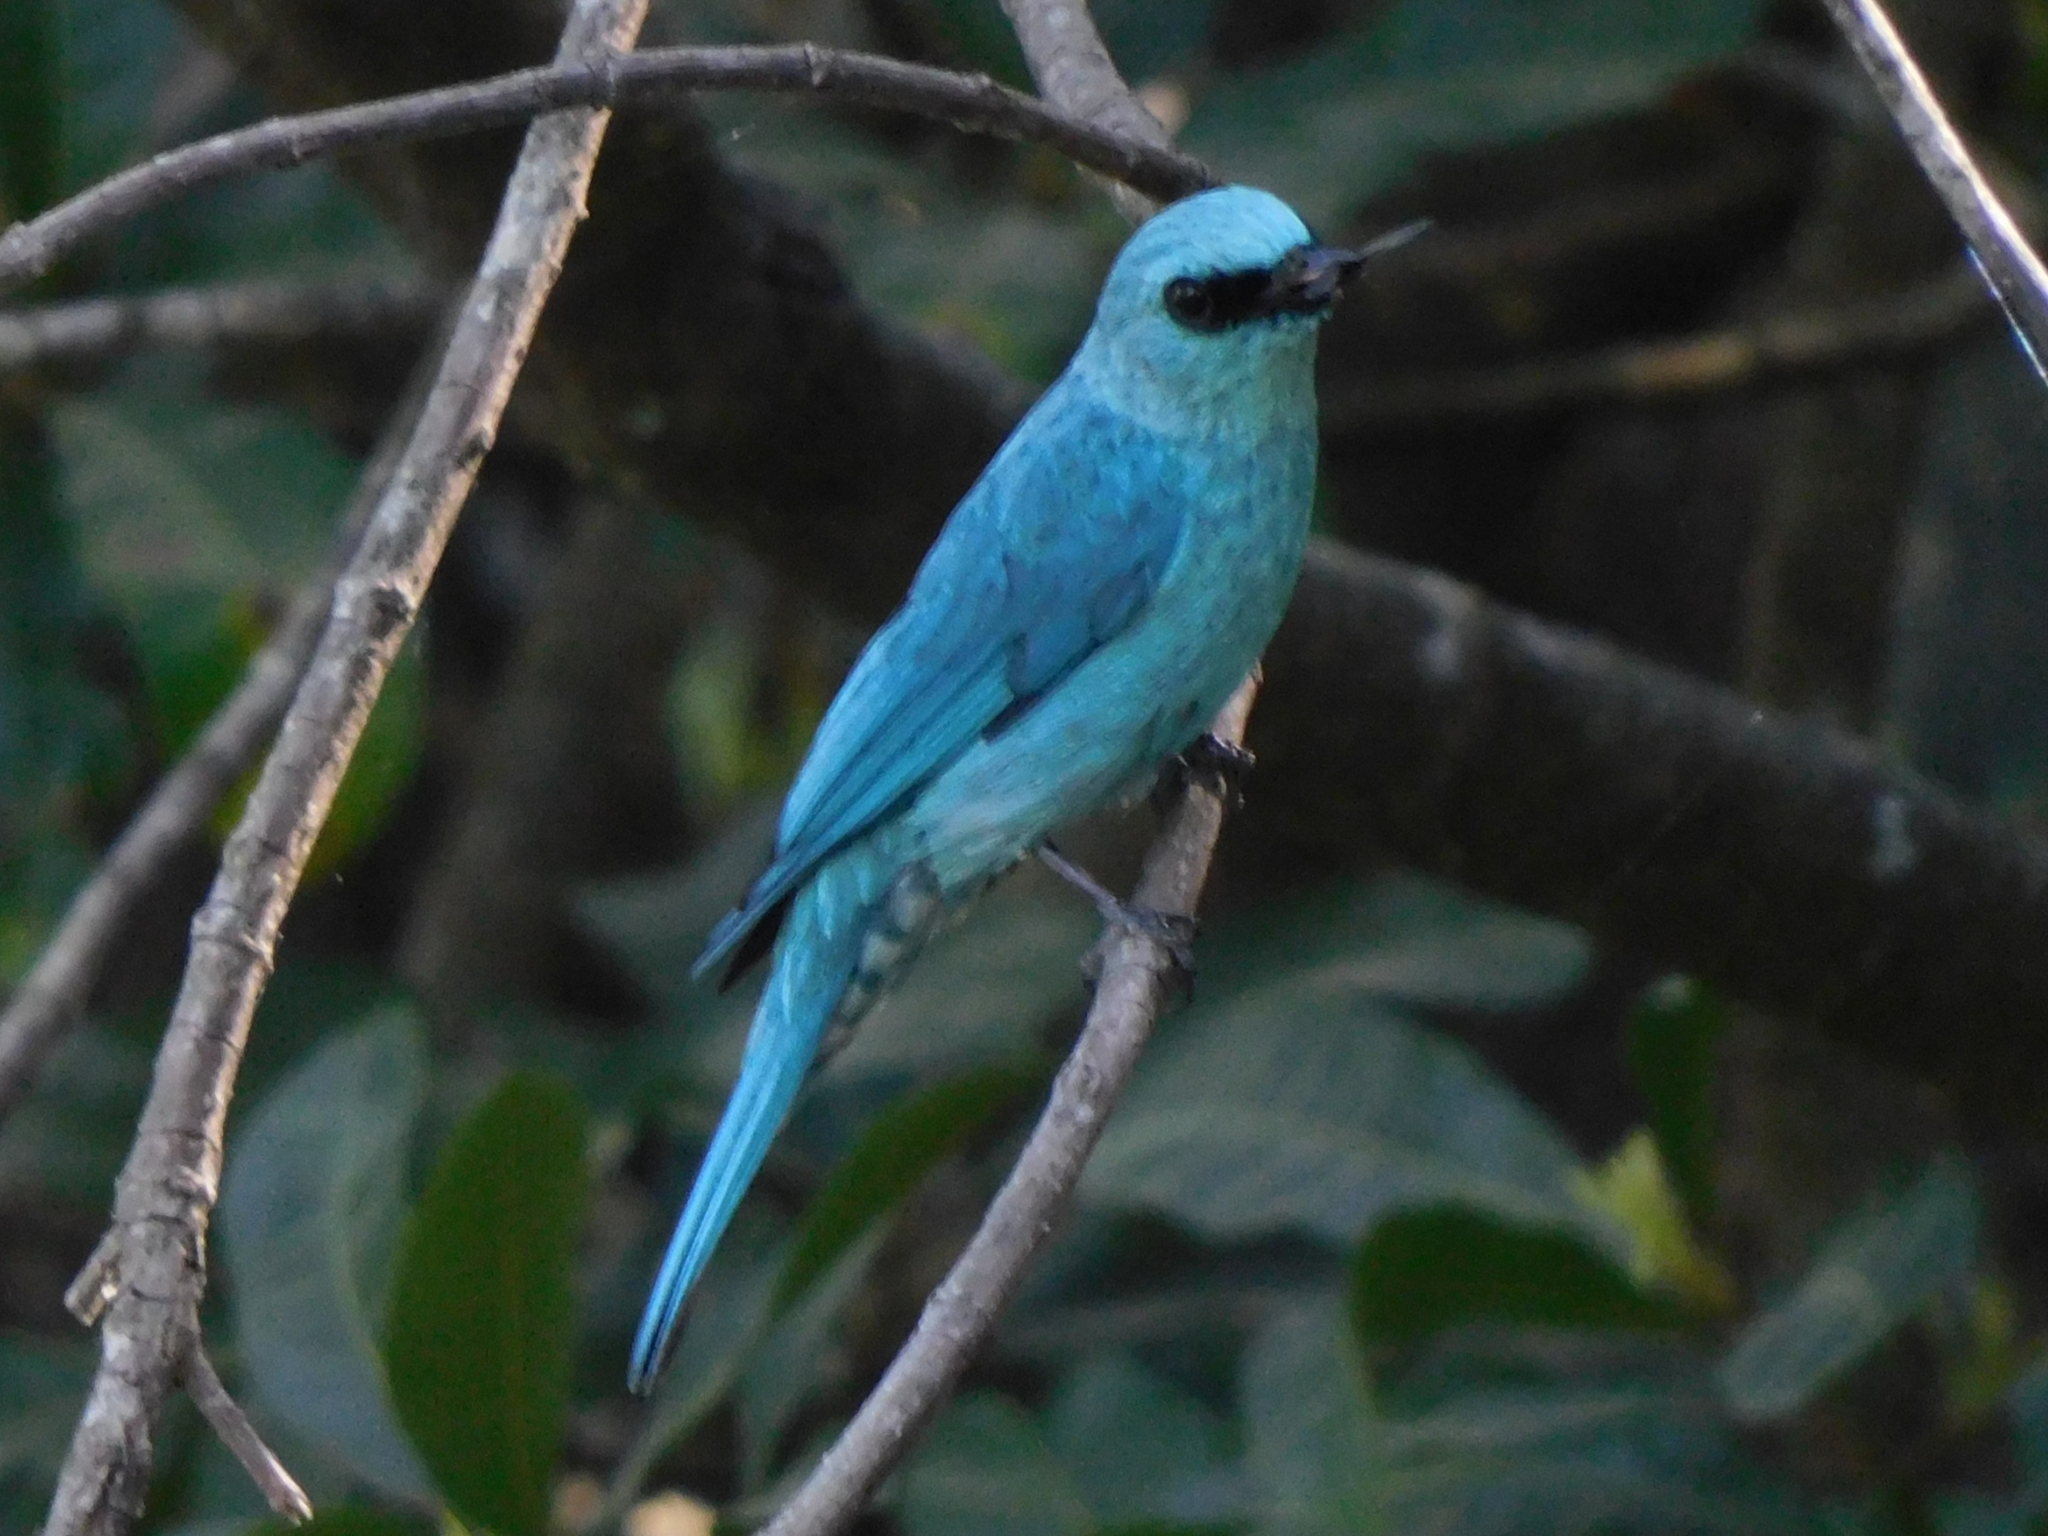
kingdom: Animalia
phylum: Chordata
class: Aves
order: Passeriformes
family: Muscicapidae
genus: Eumyias
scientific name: Eumyias thalassinus
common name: Verditer flycatcher
